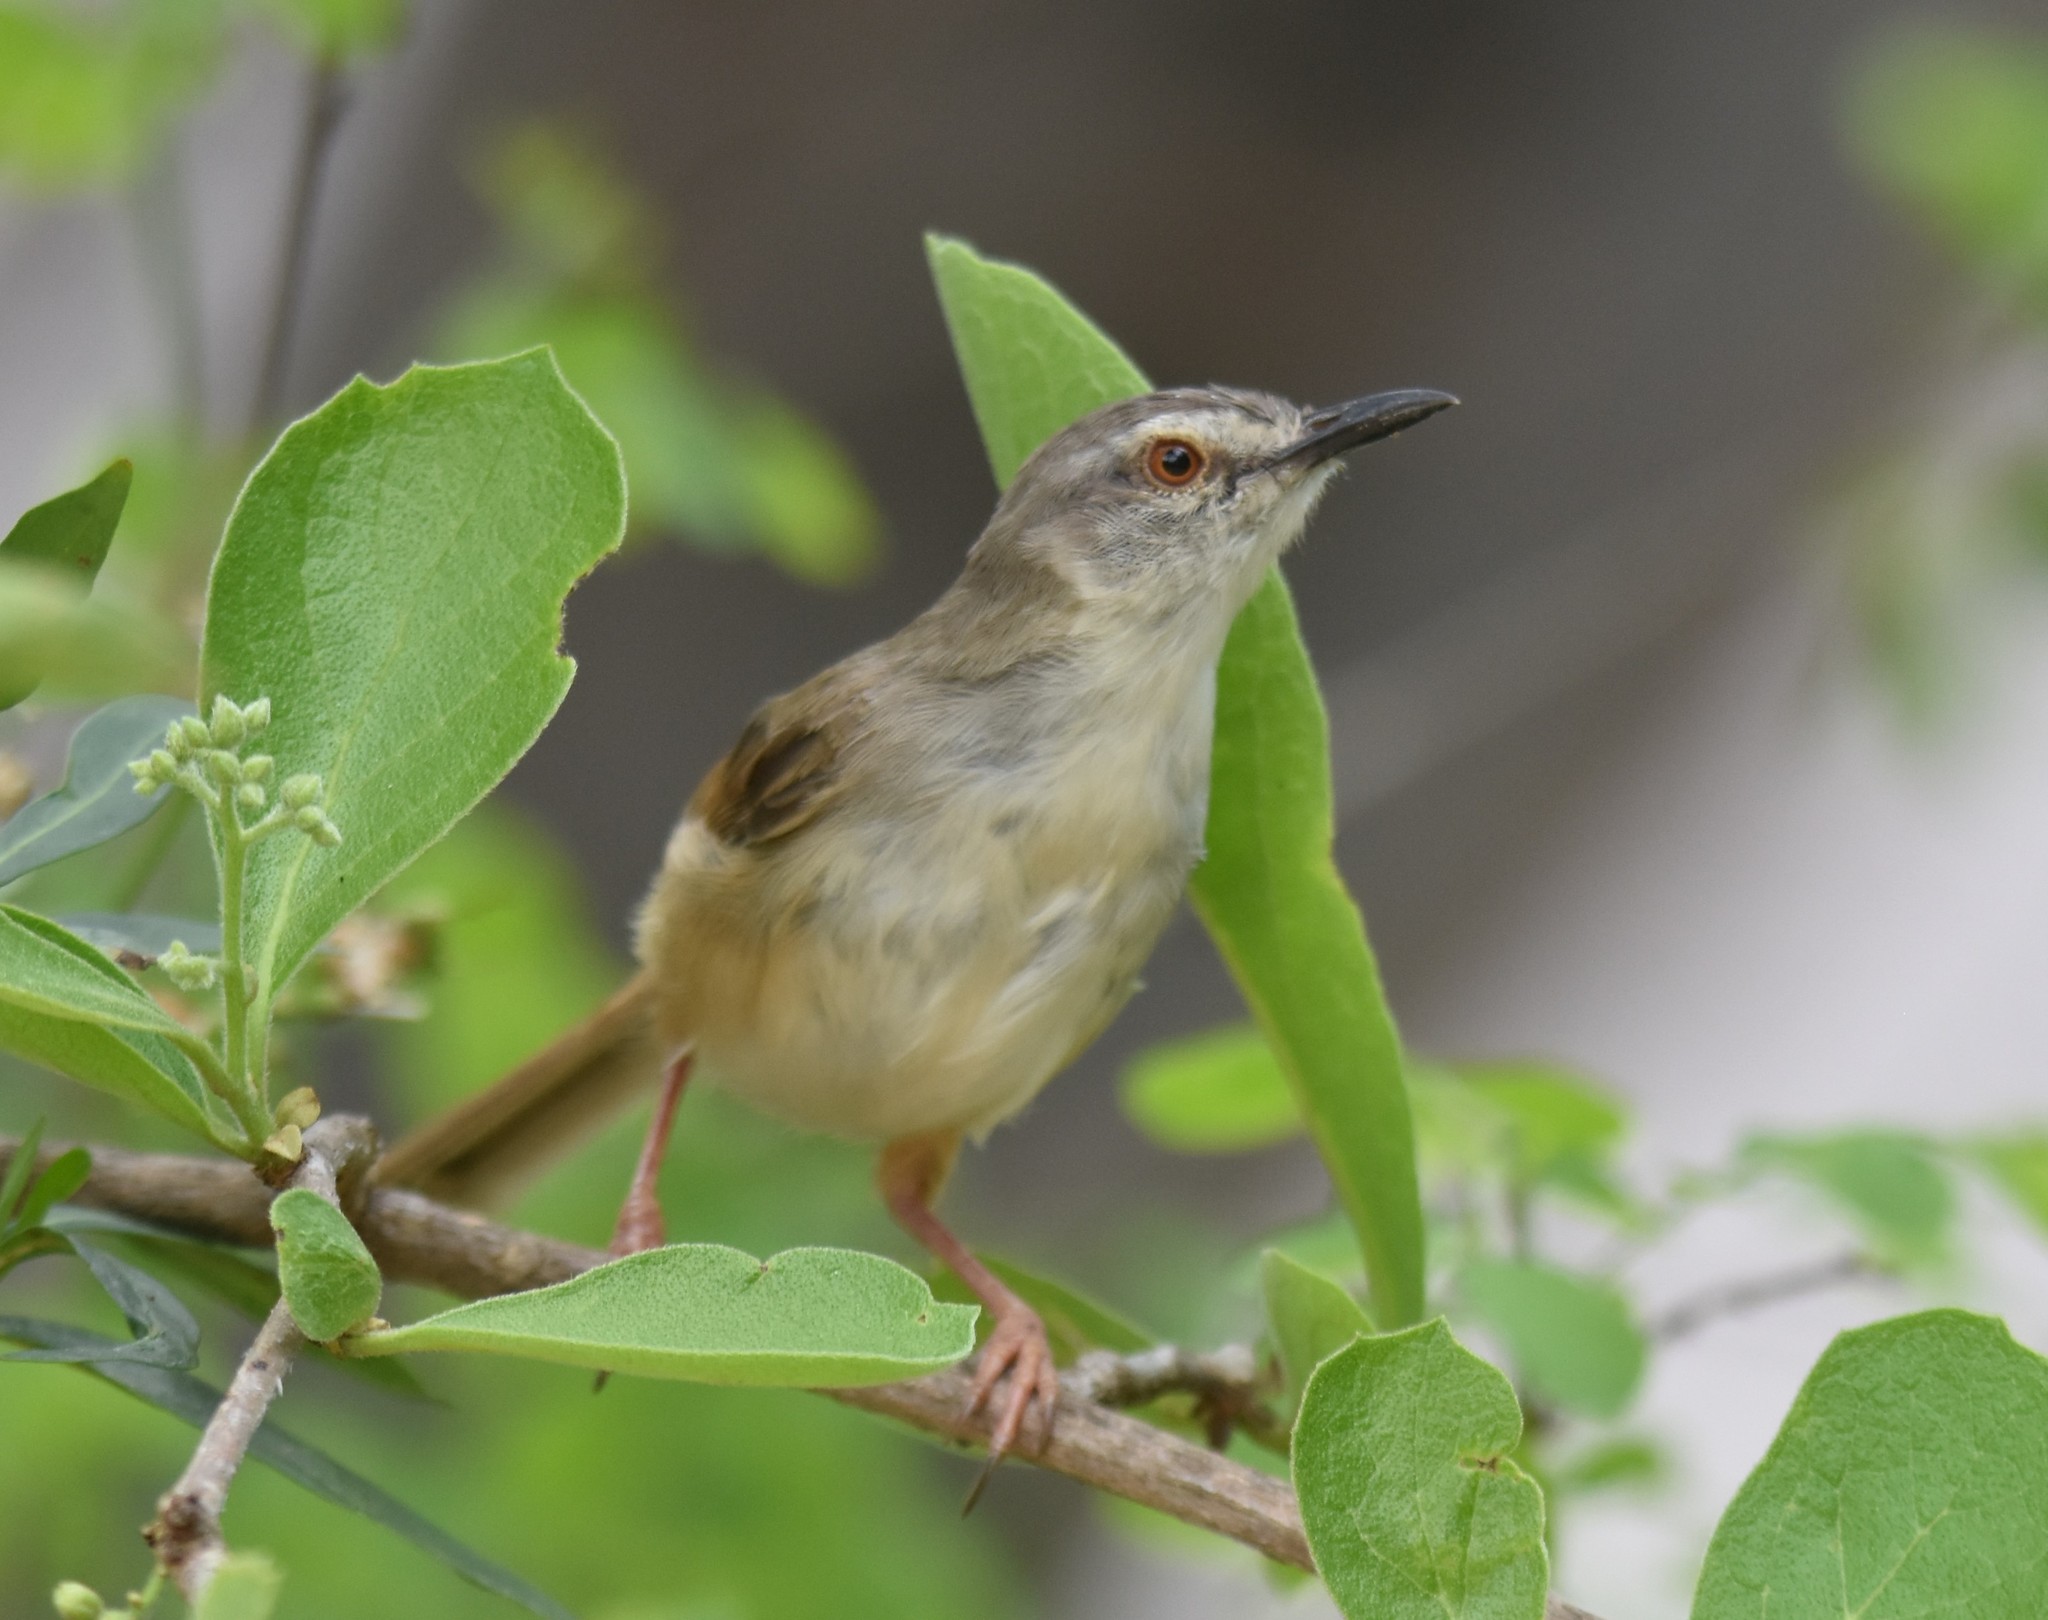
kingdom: Animalia
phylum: Chordata
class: Aves
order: Passeriformes
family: Cisticolidae
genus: Prinia
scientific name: Prinia subflava
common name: Tawny-flanked prinia
